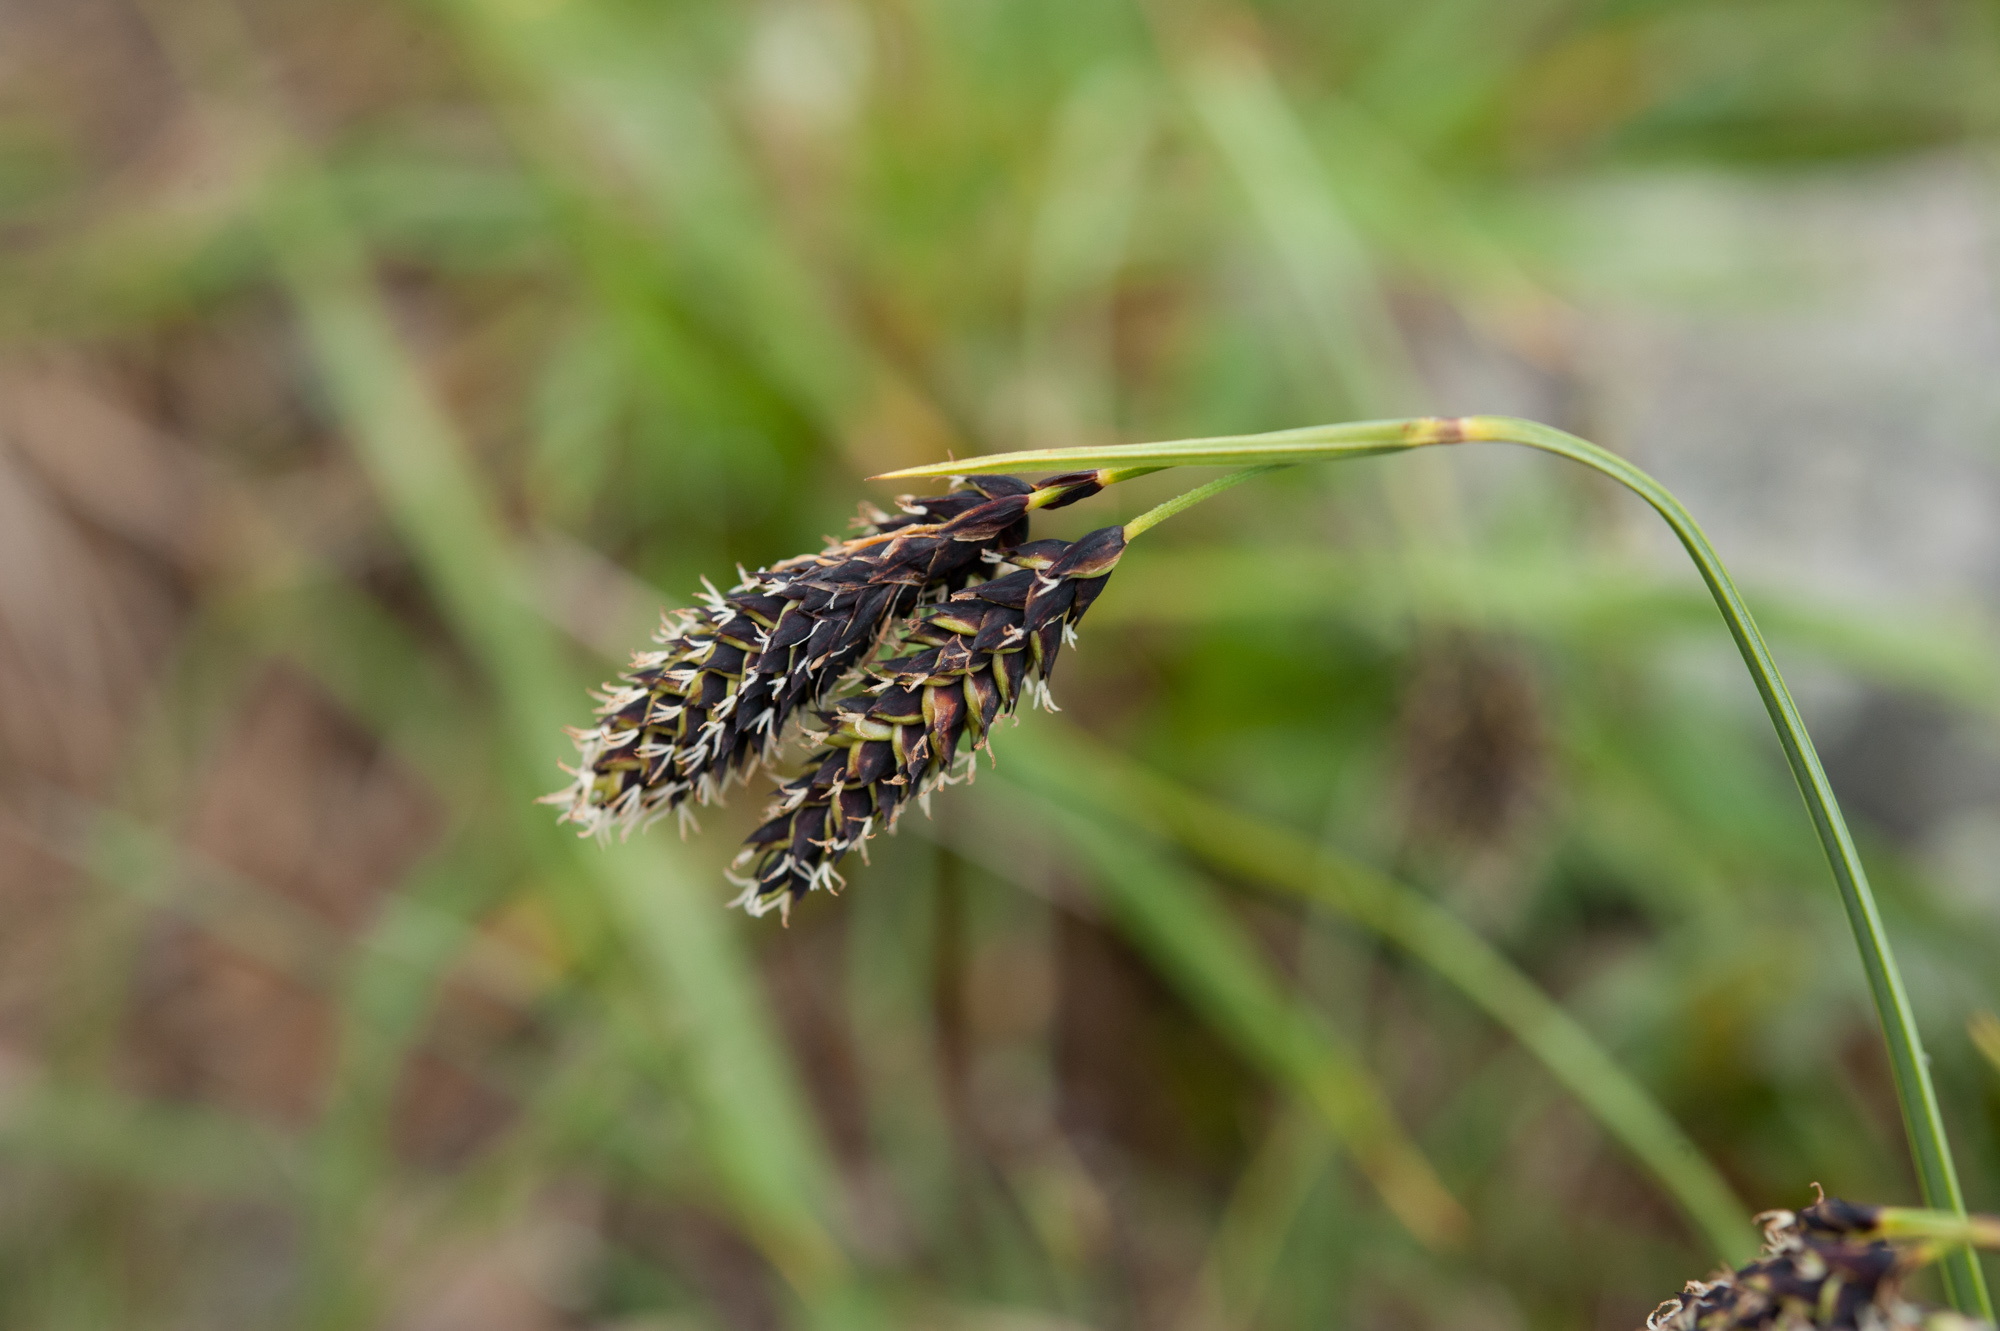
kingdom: Plantae
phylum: Tracheophyta
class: Liliopsida
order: Poales
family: Cyperaceae
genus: Carex
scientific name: Carex atrata
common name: Black alpine sedge
